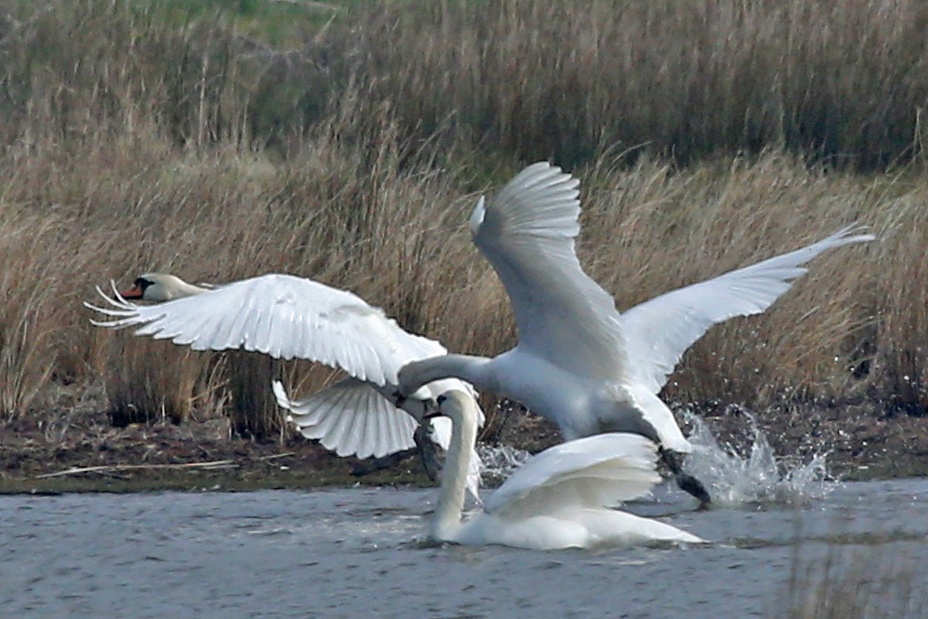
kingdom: Animalia
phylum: Chordata
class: Aves
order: Anseriformes
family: Anatidae
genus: Cygnus
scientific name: Cygnus olor
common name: Mute swan
